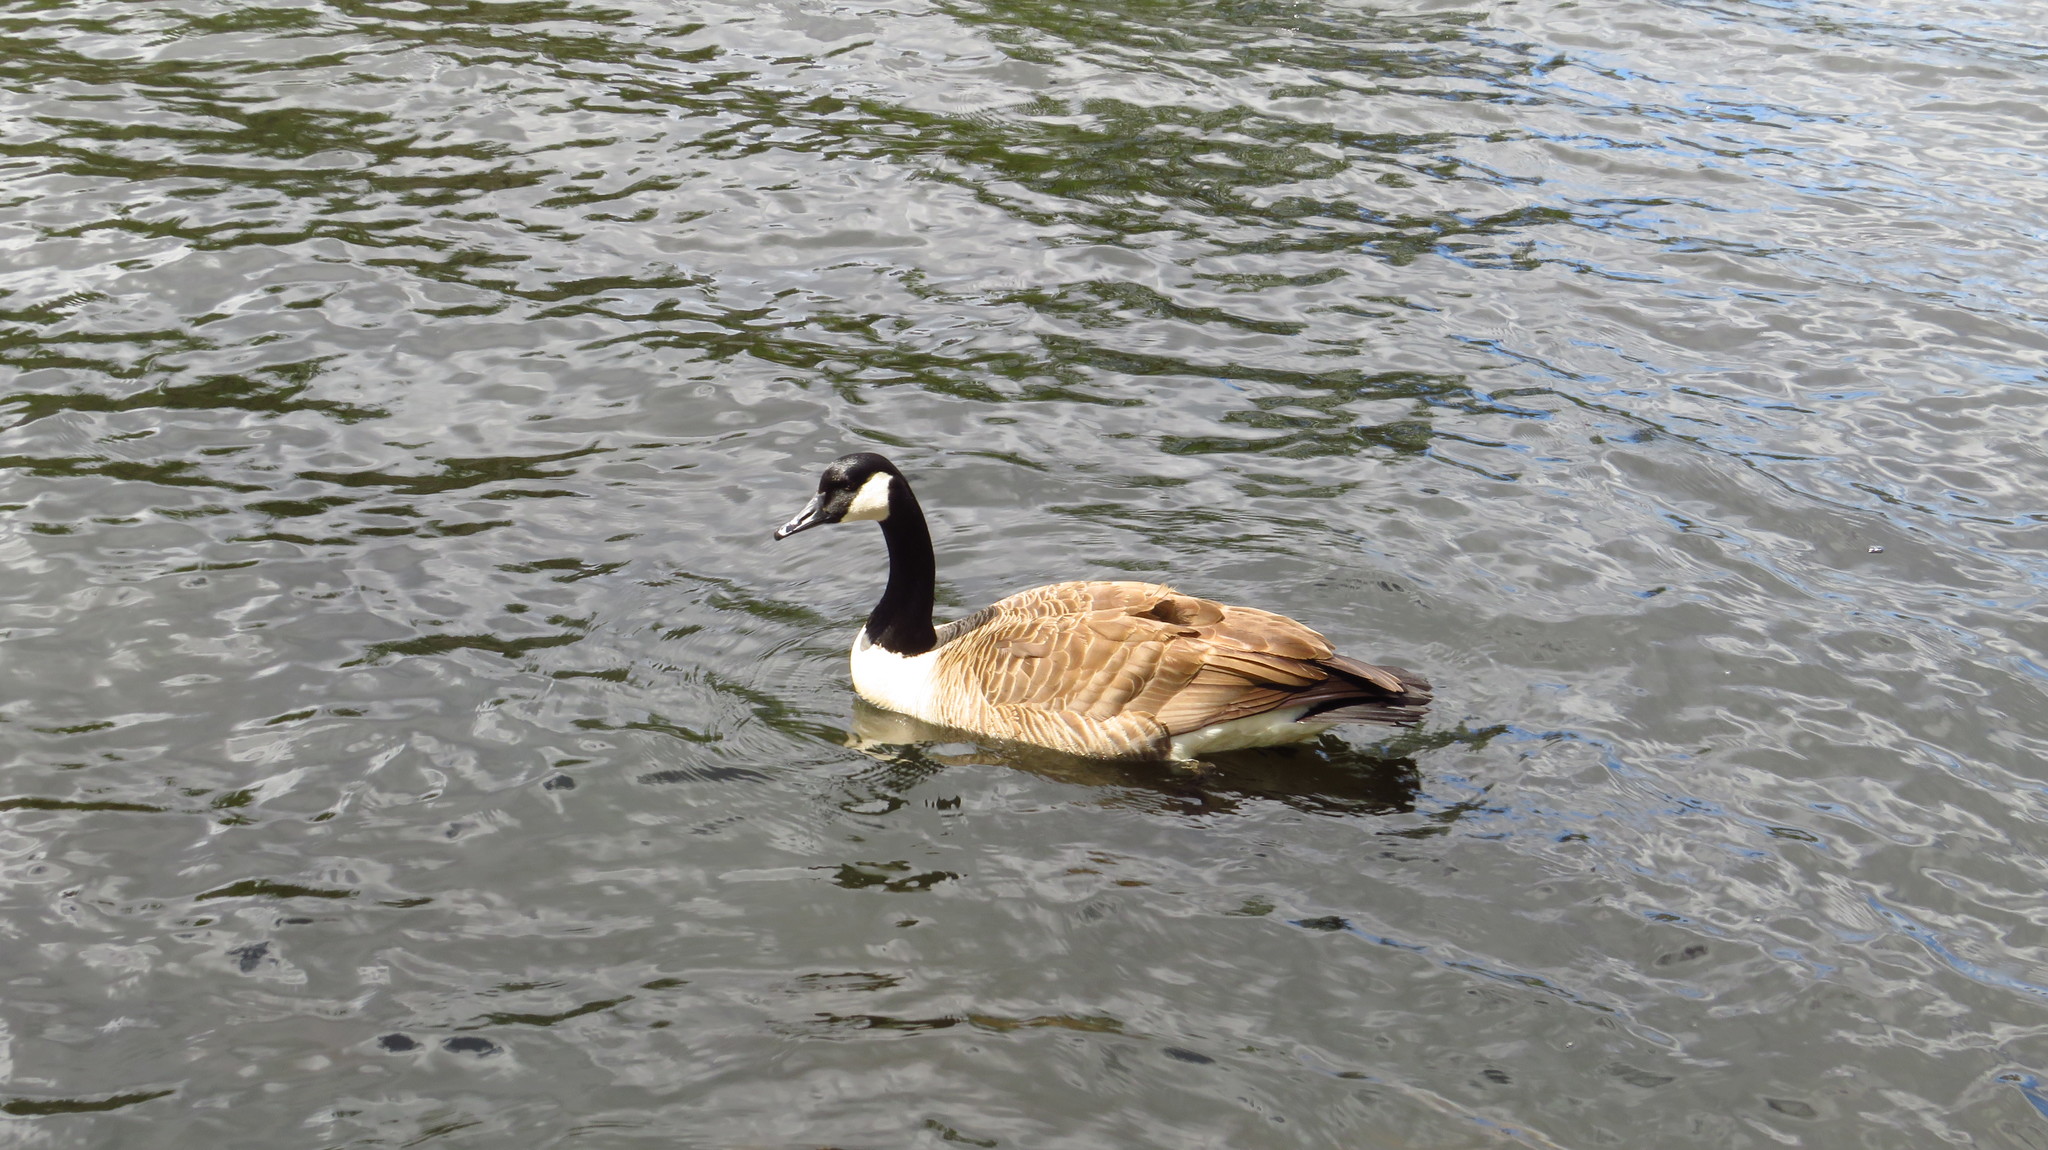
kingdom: Animalia
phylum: Chordata
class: Aves
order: Anseriformes
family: Anatidae
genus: Branta
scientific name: Branta canadensis
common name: Canada goose
